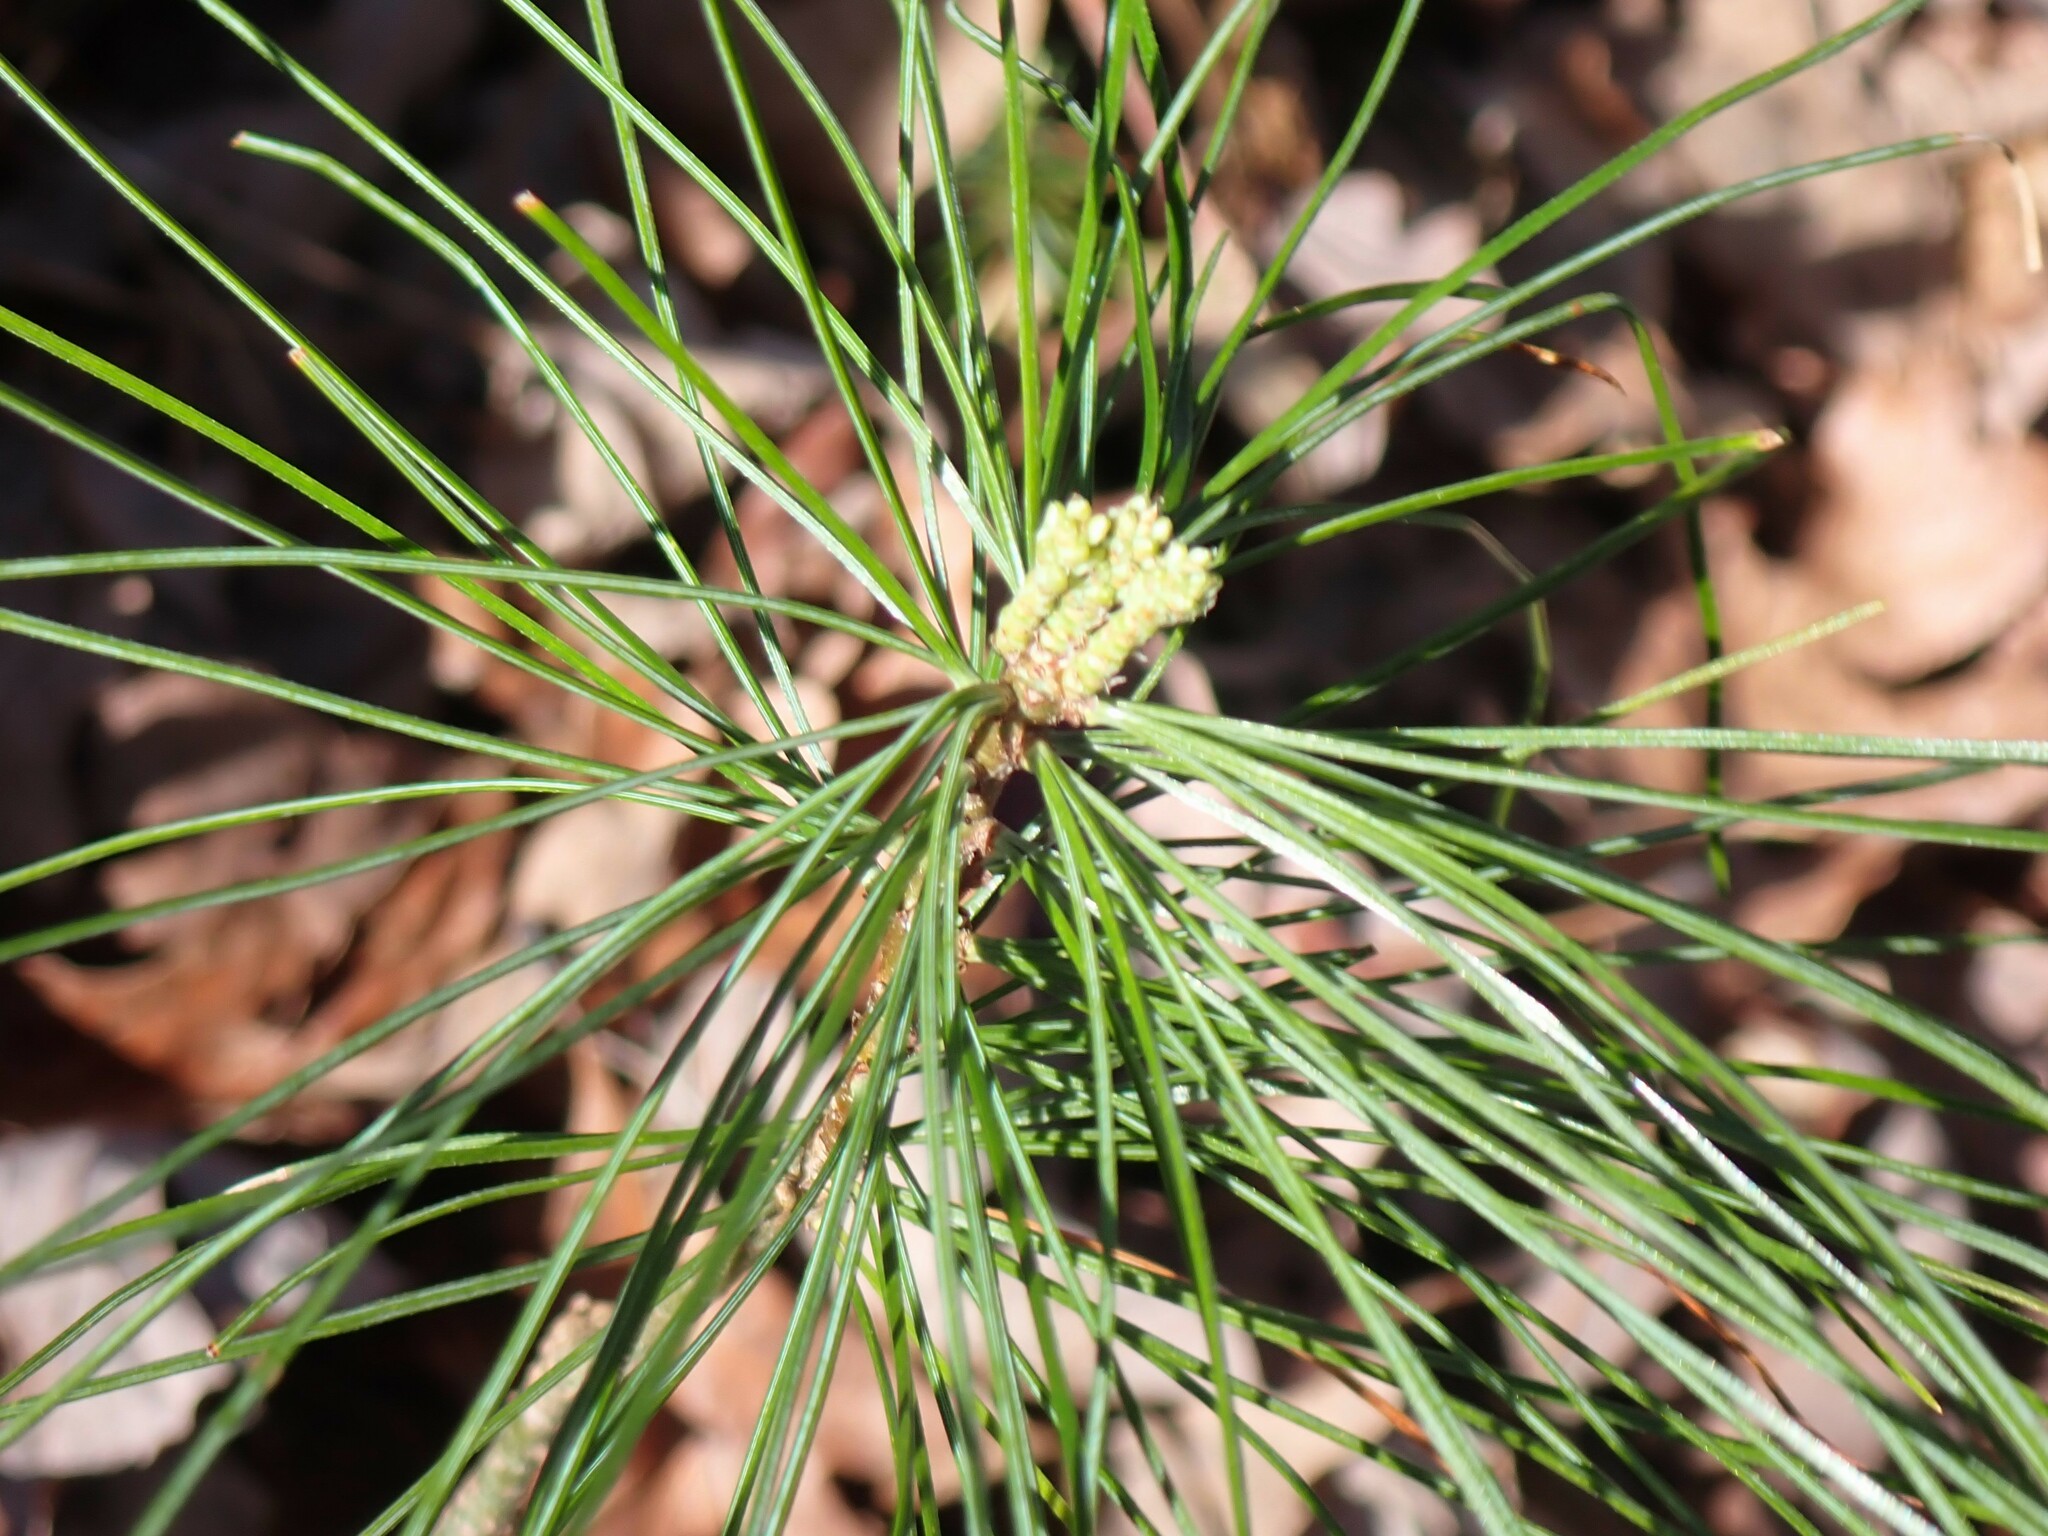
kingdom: Plantae
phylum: Tracheophyta
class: Pinopsida
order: Pinales
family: Pinaceae
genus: Pinus
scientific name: Pinus strobus
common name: Weymouth pine
